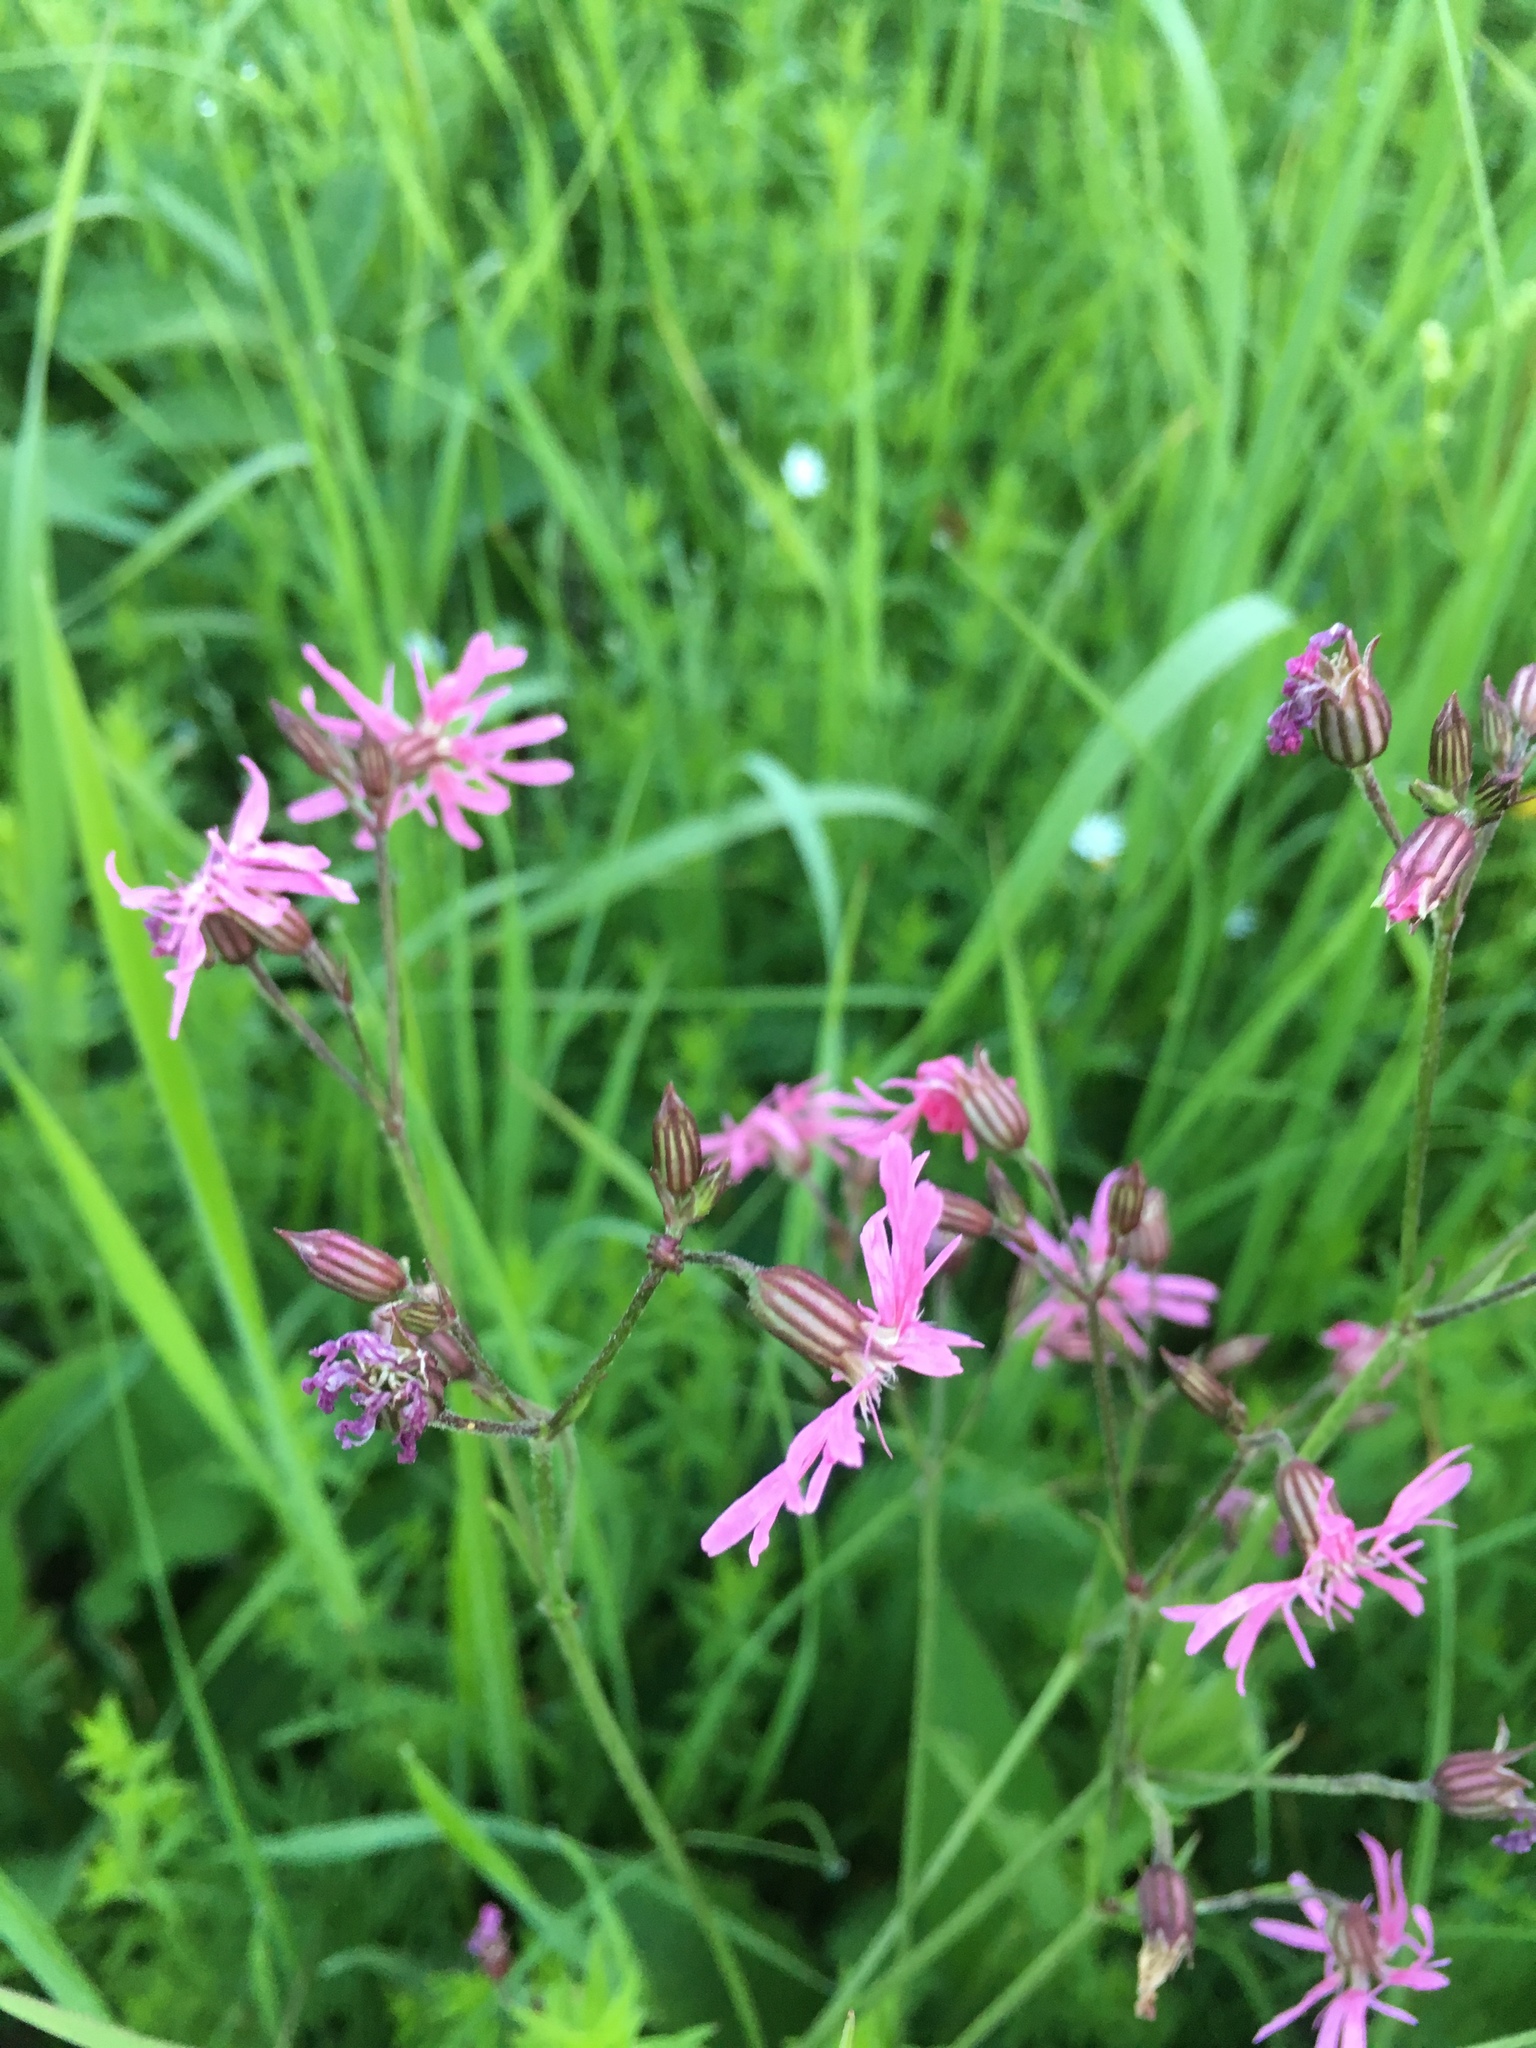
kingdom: Plantae
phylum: Tracheophyta
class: Magnoliopsida
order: Caryophyllales
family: Caryophyllaceae
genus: Silene
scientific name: Silene flos-cuculi
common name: Ragged-robin
